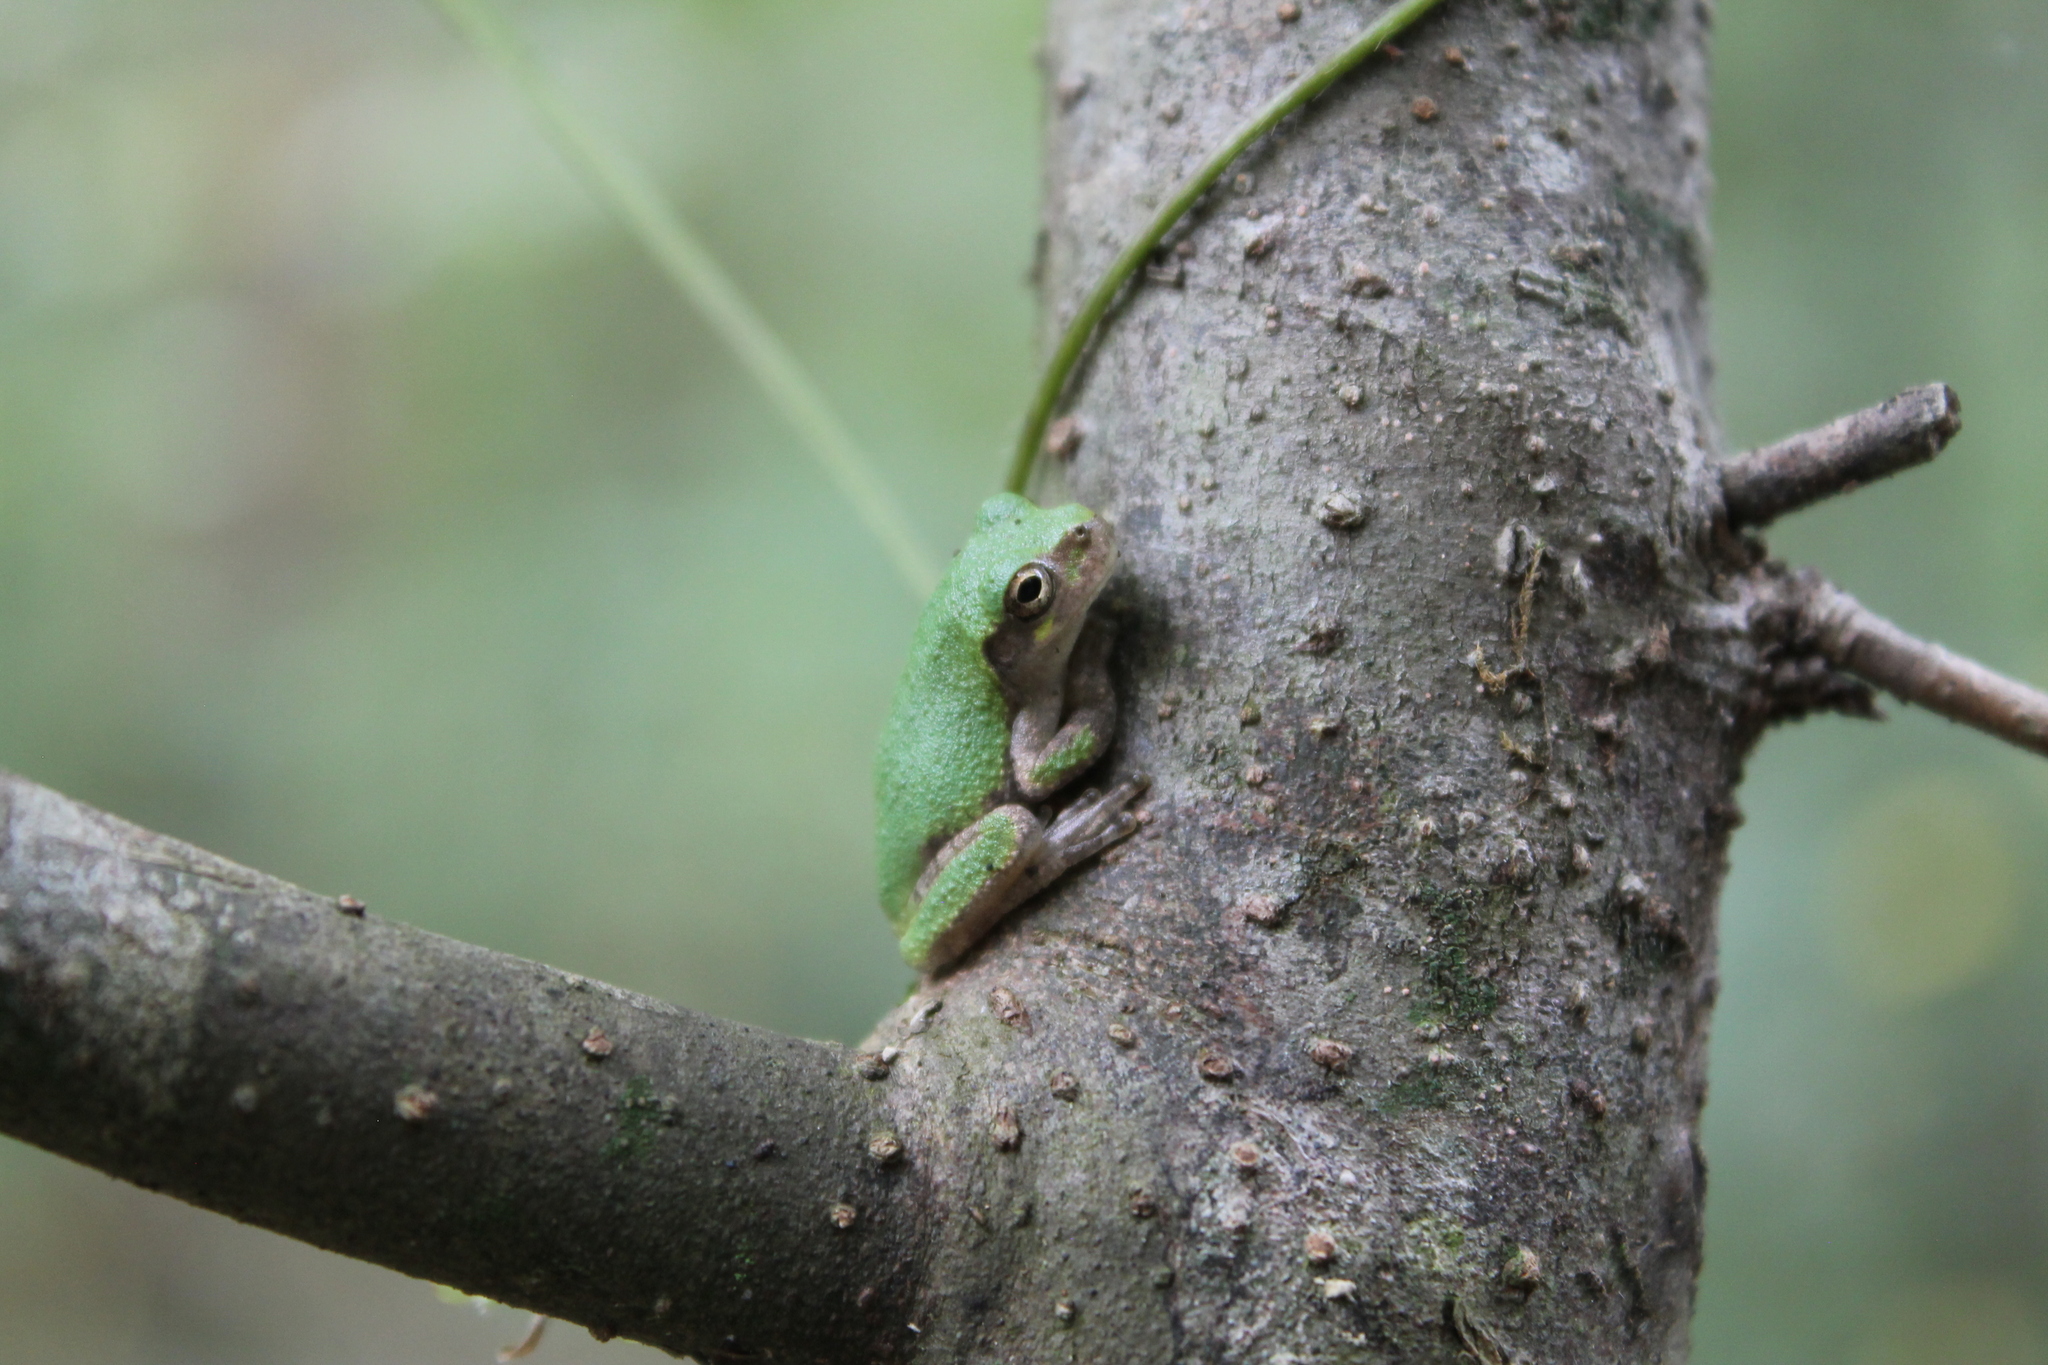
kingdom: Animalia
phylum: Chordata
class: Amphibia
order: Anura
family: Hylidae
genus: Dryophytes
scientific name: Dryophytes chrysoscelis
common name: Cope's gray treefrog
